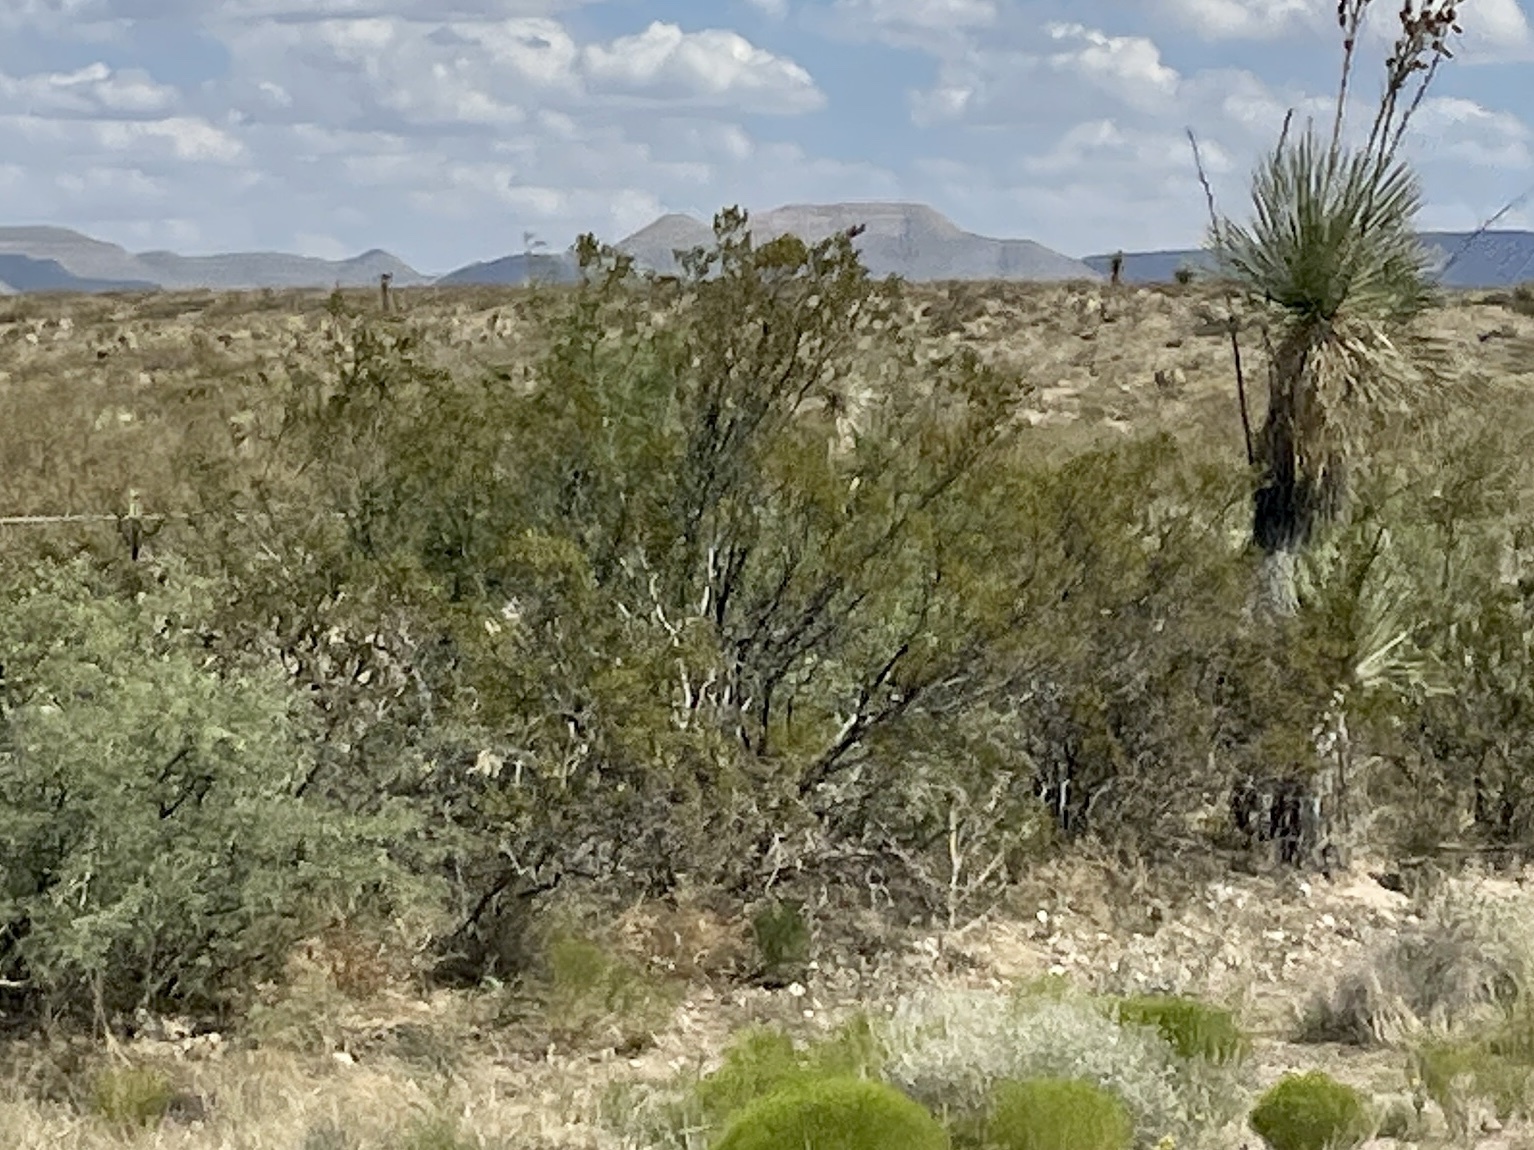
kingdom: Plantae
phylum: Tracheophyta
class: Magnoliopsida
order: Zygophyllales
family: Zygophyllaceae
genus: Larrea
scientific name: Larrea tridentata
